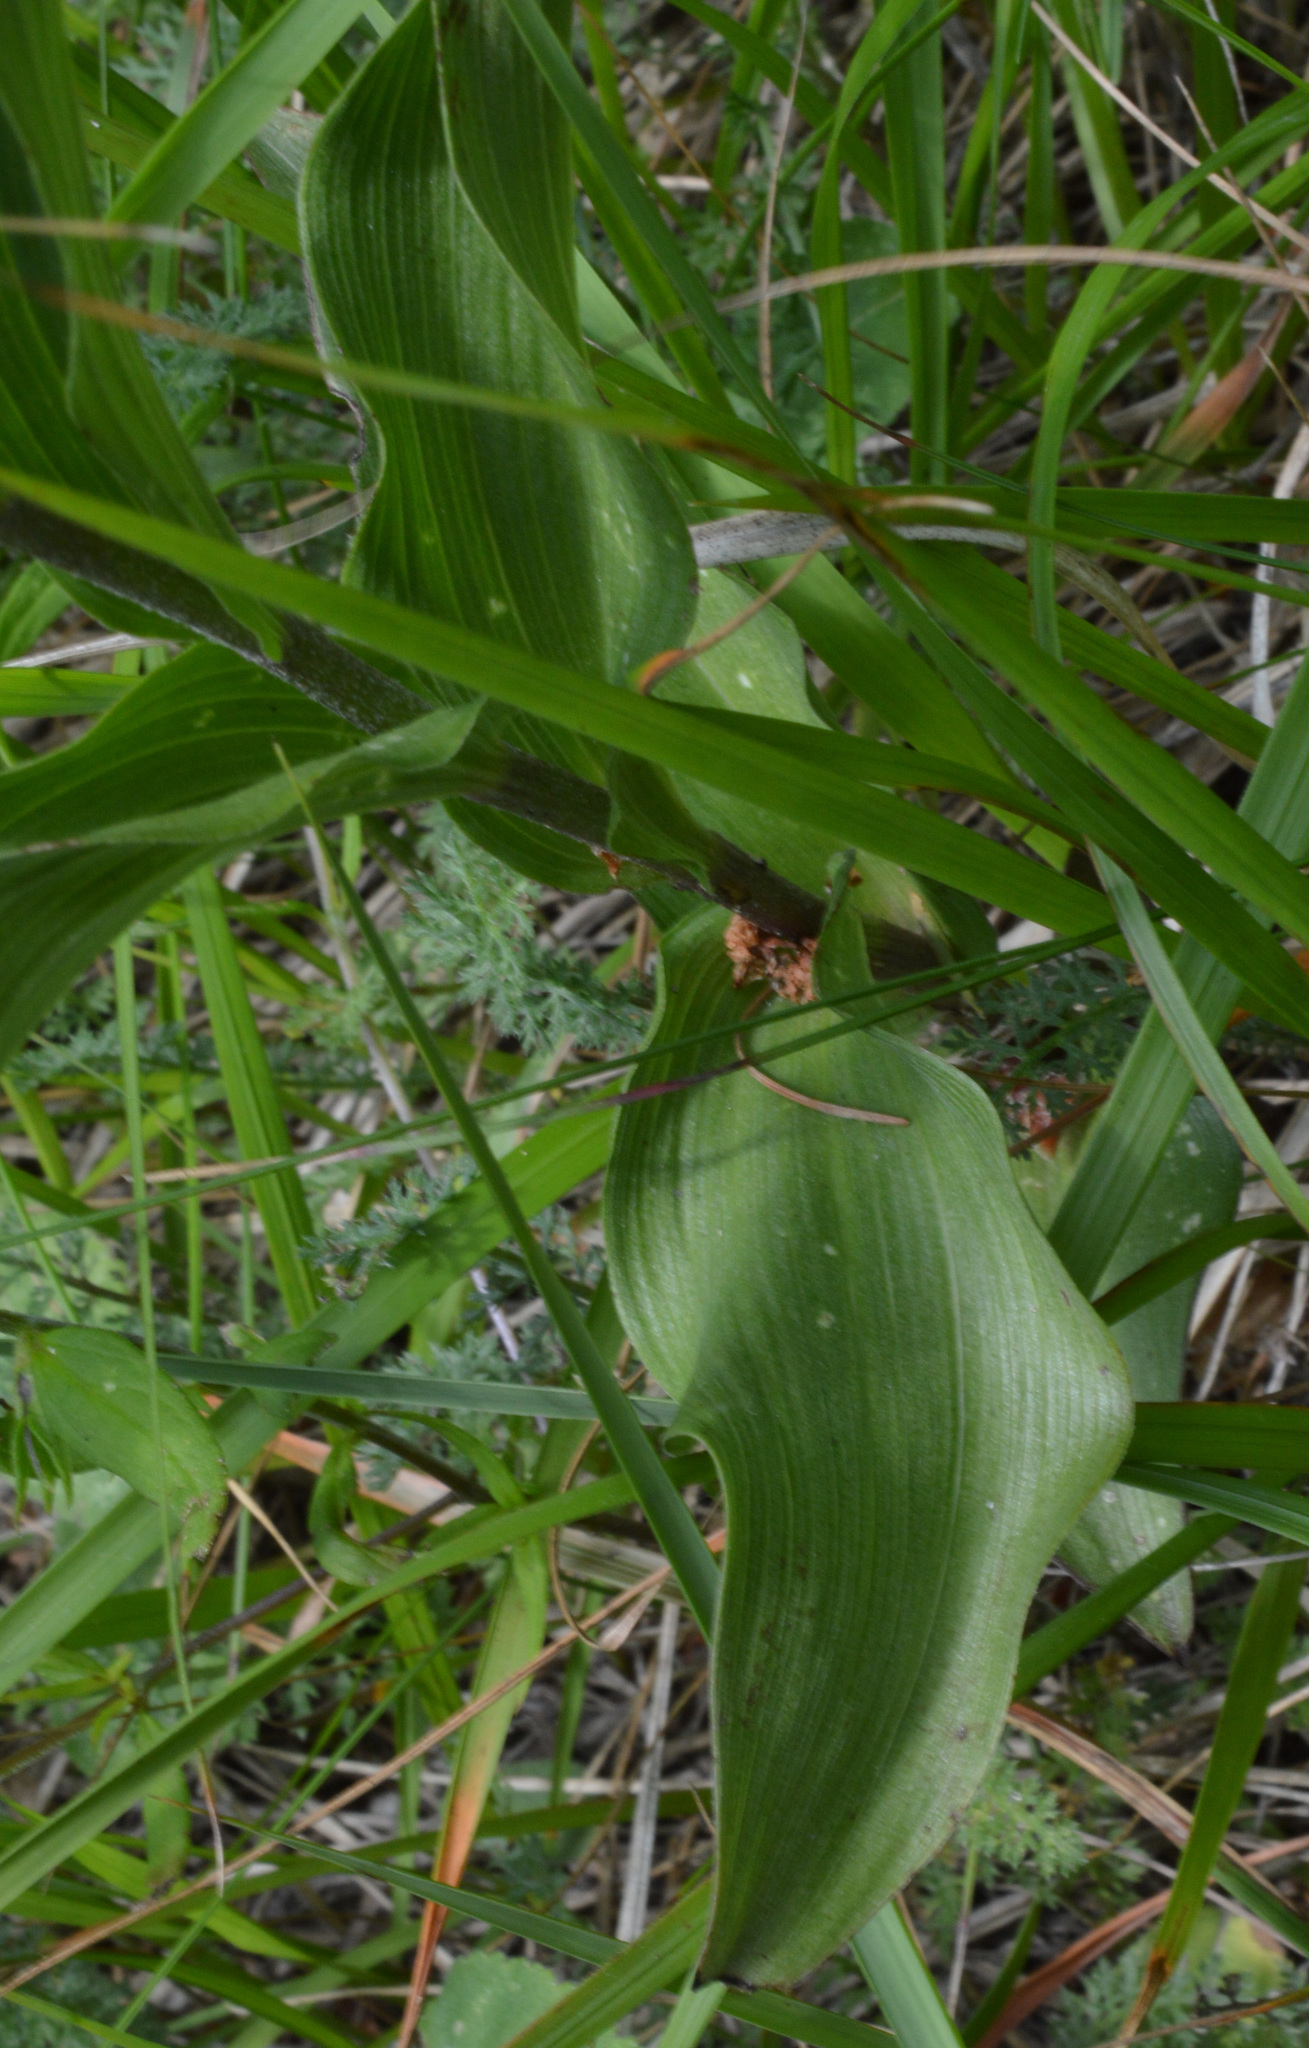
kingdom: Plantae
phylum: Tracheophyta
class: Liliopsida
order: Asparagales
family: Orchidaceae
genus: Epipactis
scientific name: Epipactis atrorubens
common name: Dark-red helleborine
